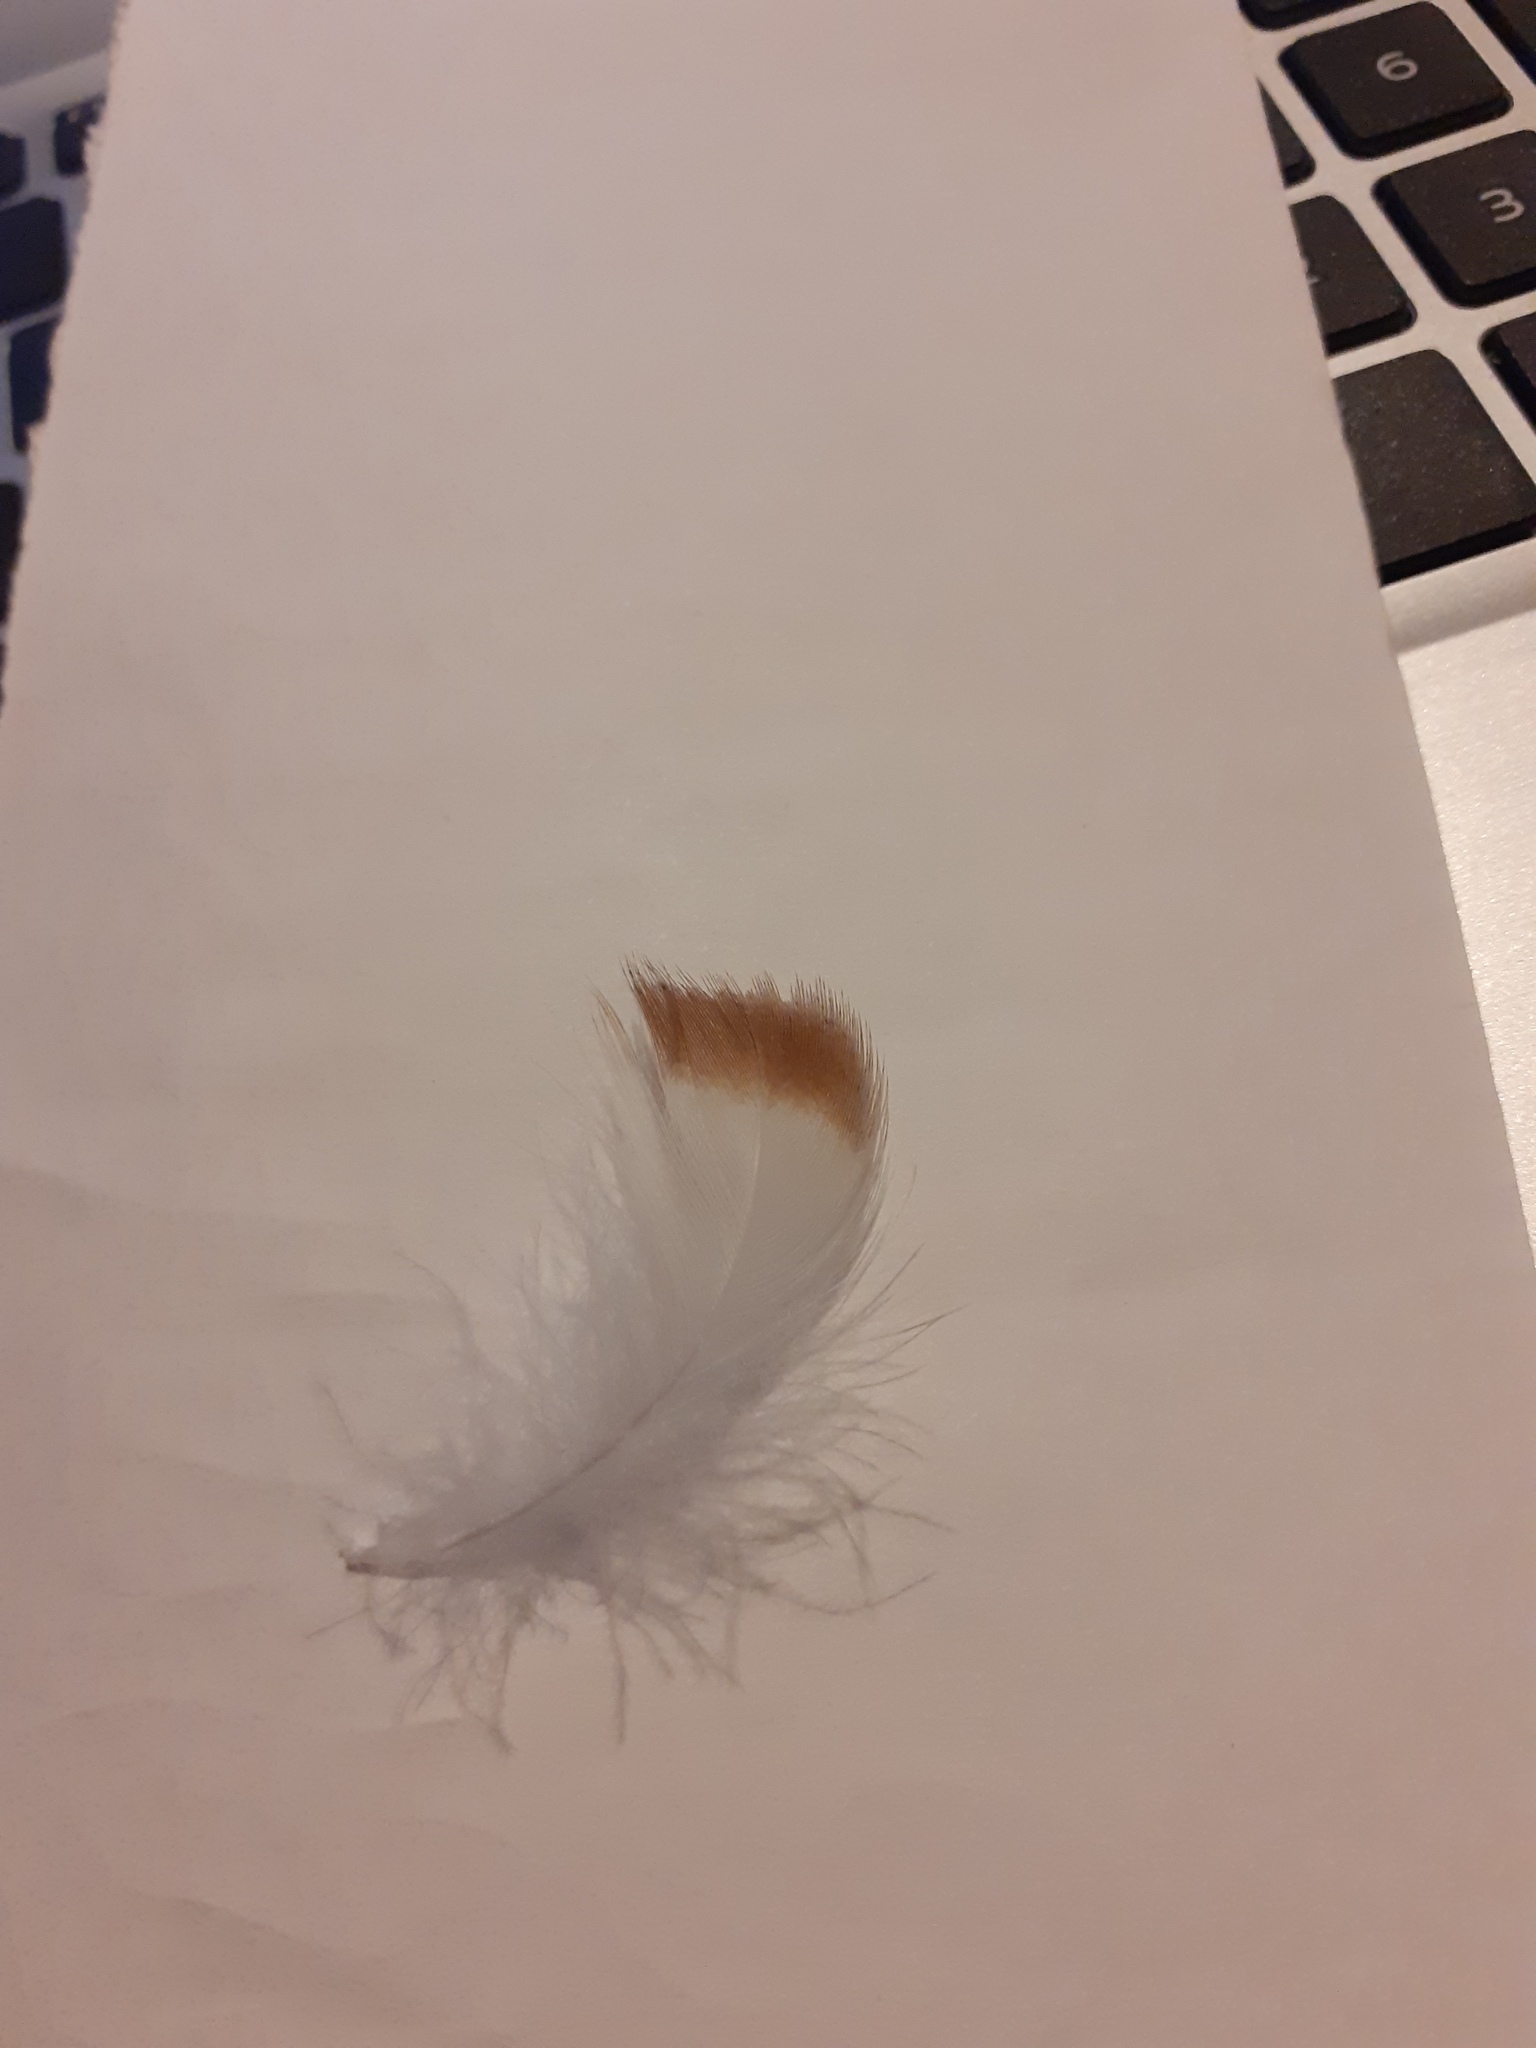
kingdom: Animalia
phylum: Chordata
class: Aves
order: Anseriformes
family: Anatidae
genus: Tadorna
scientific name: Tadorna tadorna
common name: Common shelduck
